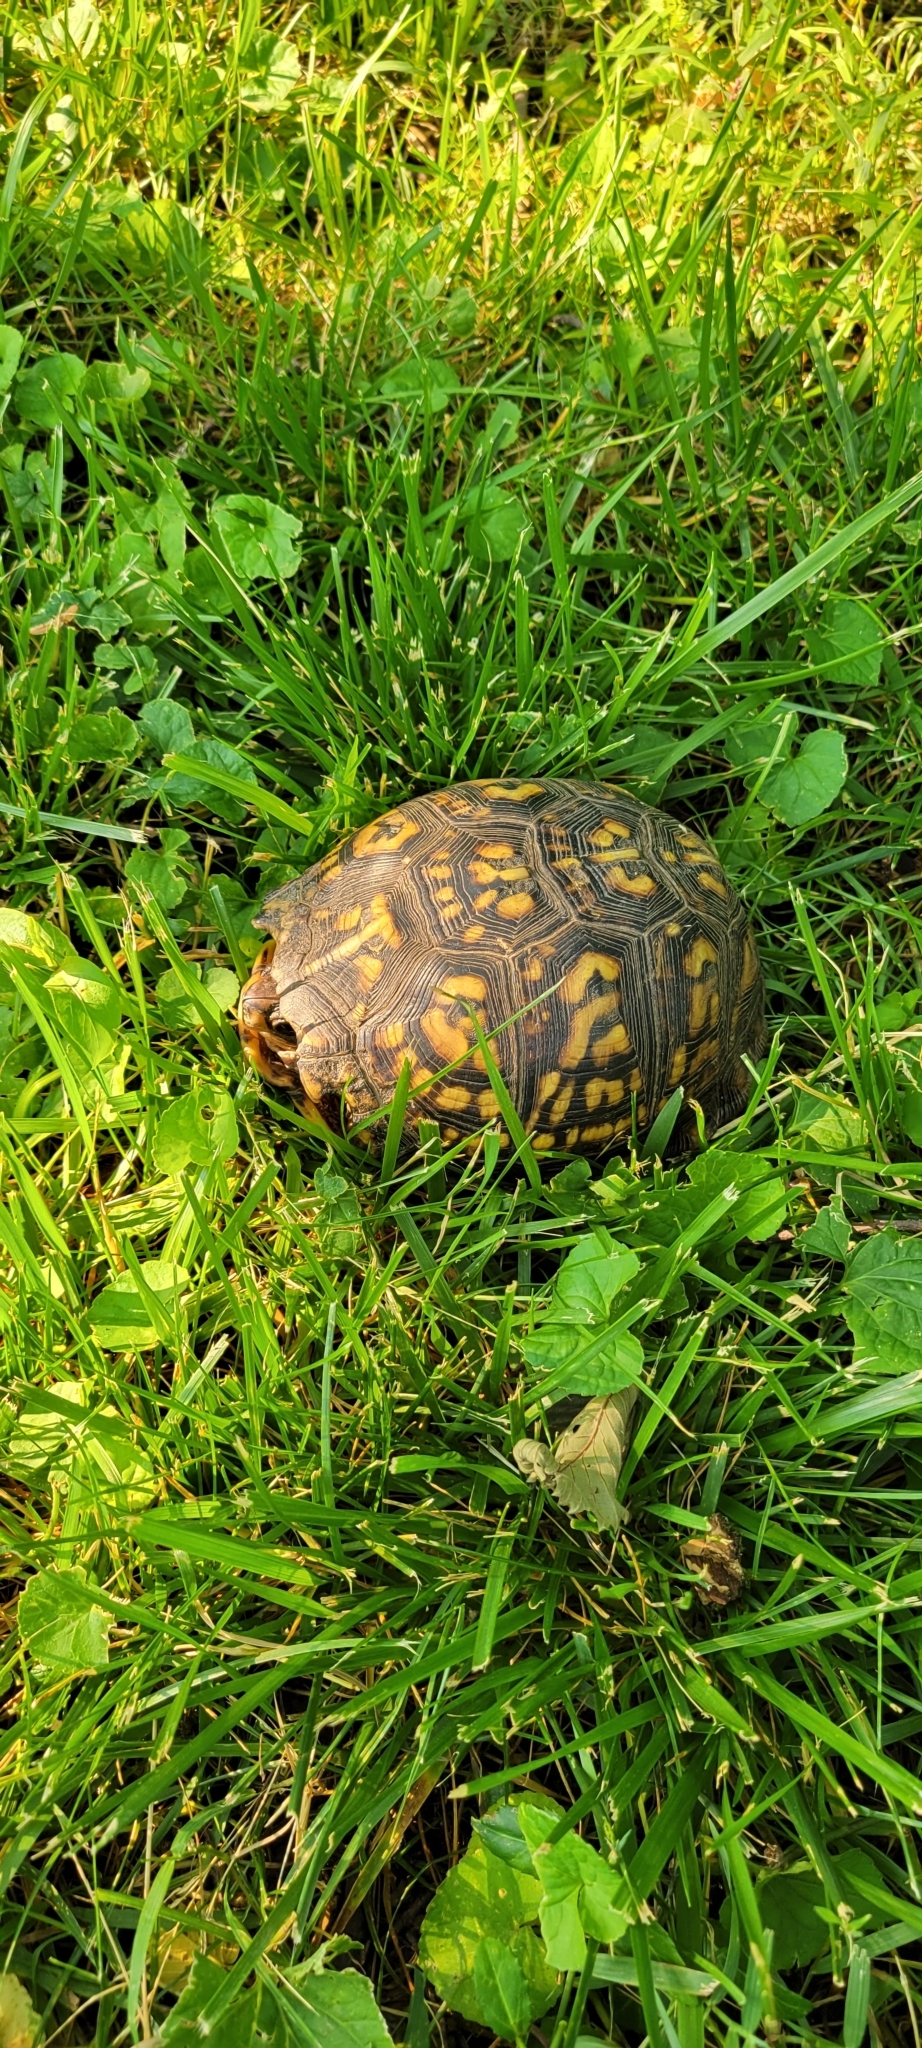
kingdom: Animalia
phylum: Chordata
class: Testudines
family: Emydidae
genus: Terrapene
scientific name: Terrapene carolina
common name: Common box turtle
